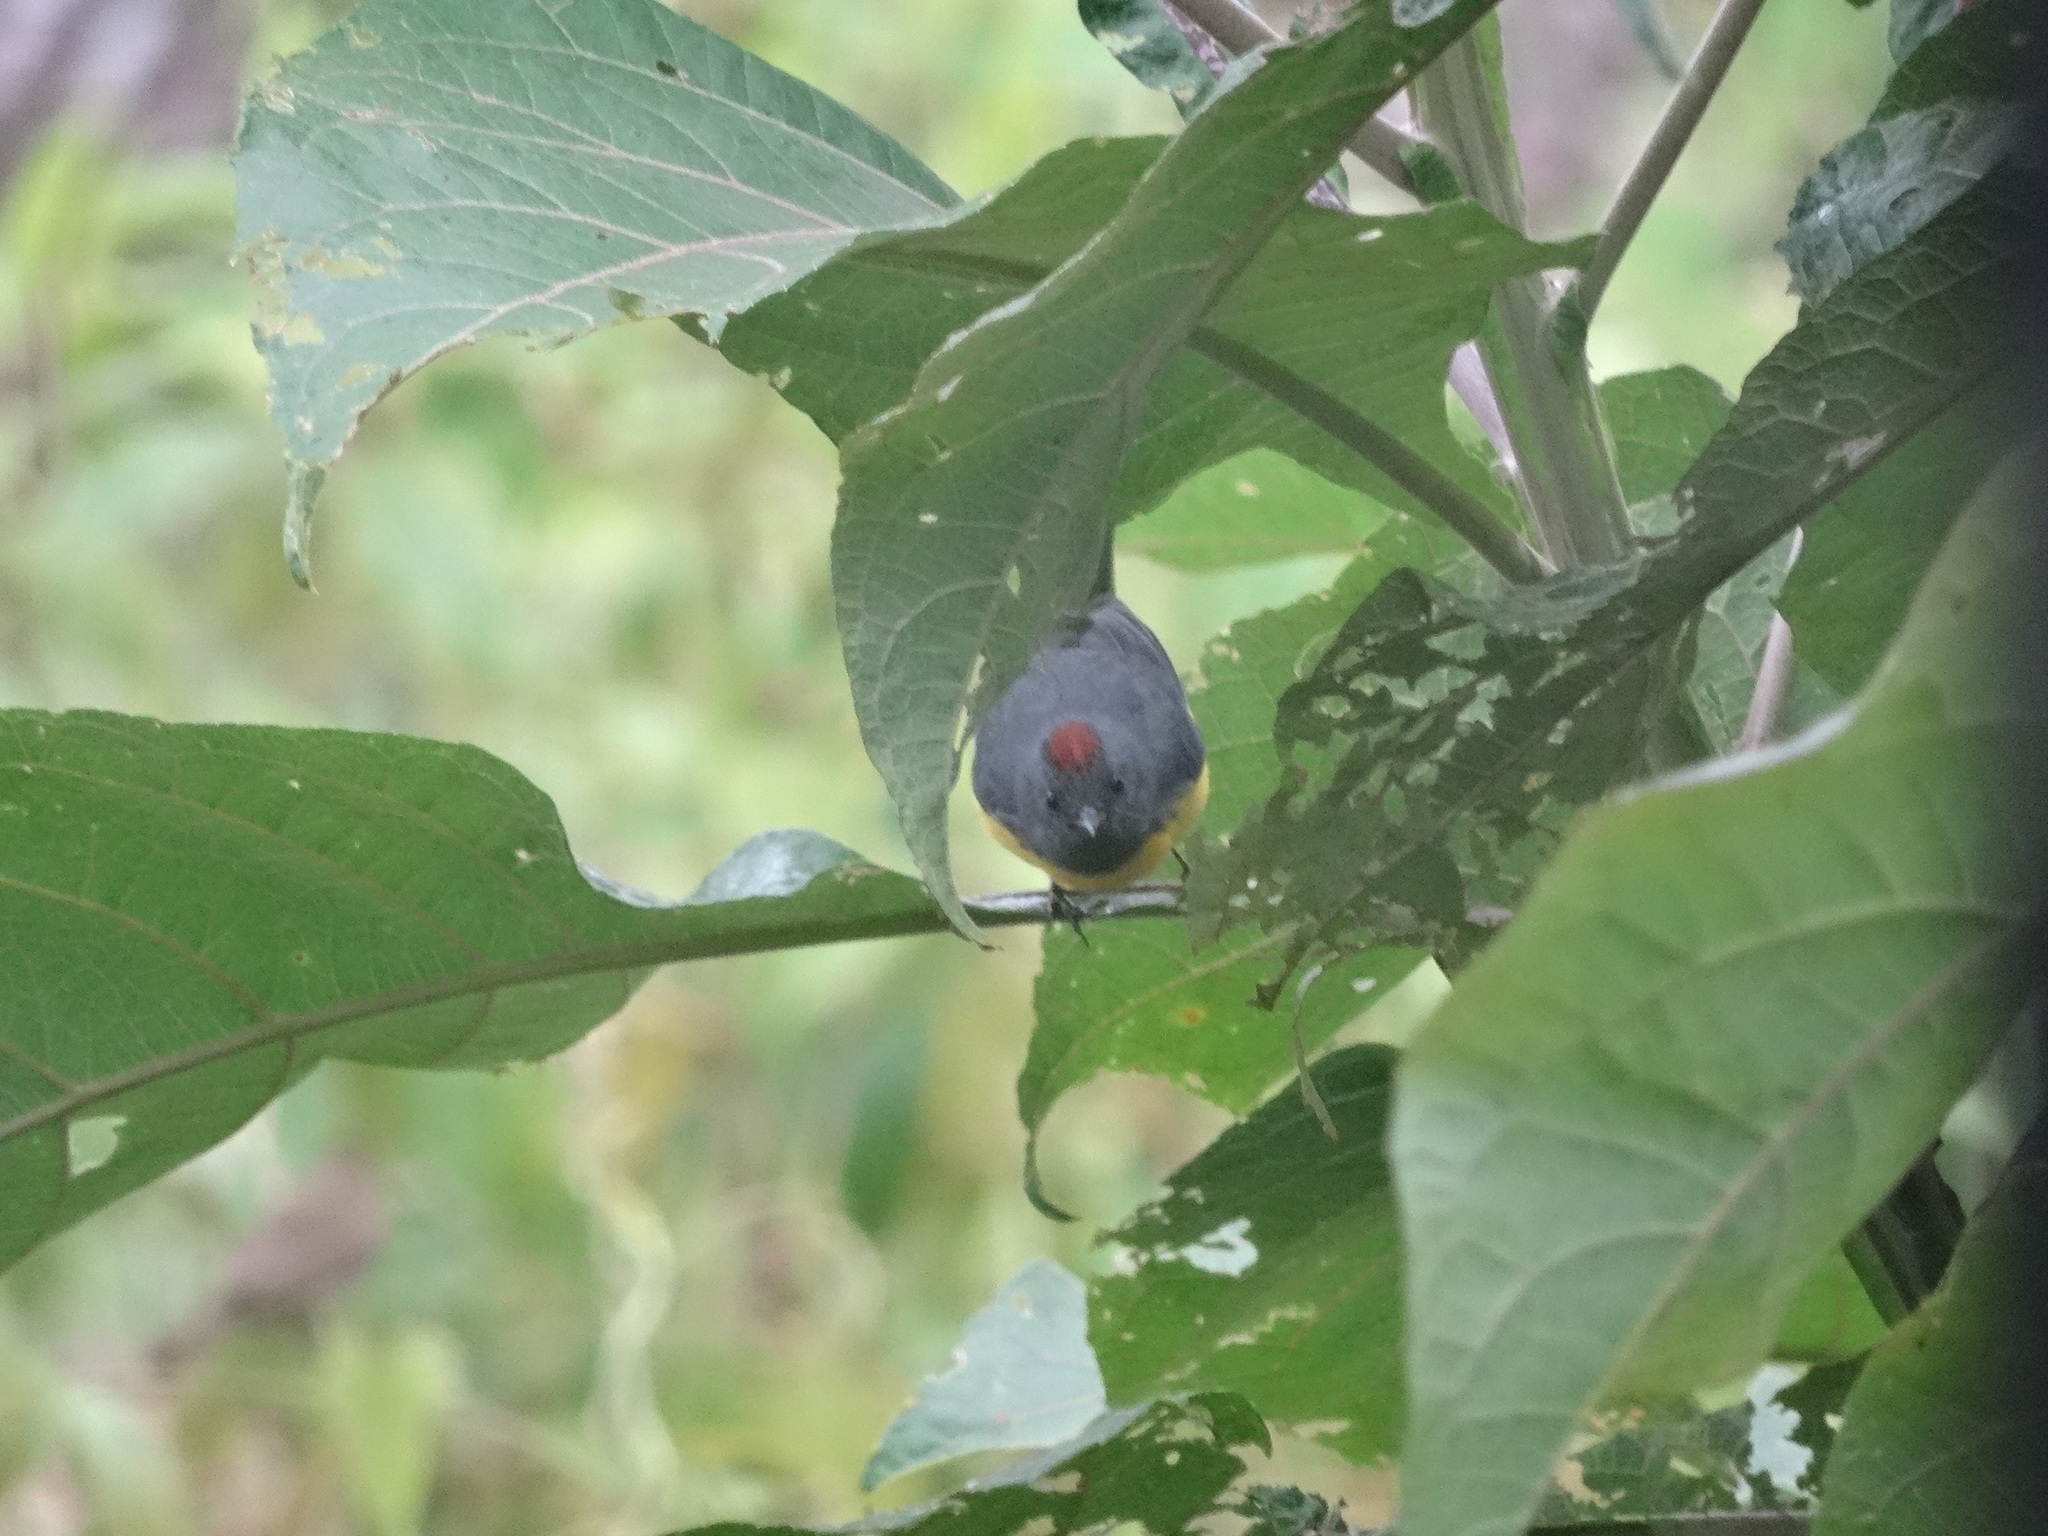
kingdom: Animalia
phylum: Chordata
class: Aves
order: Passeriformes
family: Parulidae
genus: Myioborus
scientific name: Myioborus miniatus
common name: Slate-throated redstart
